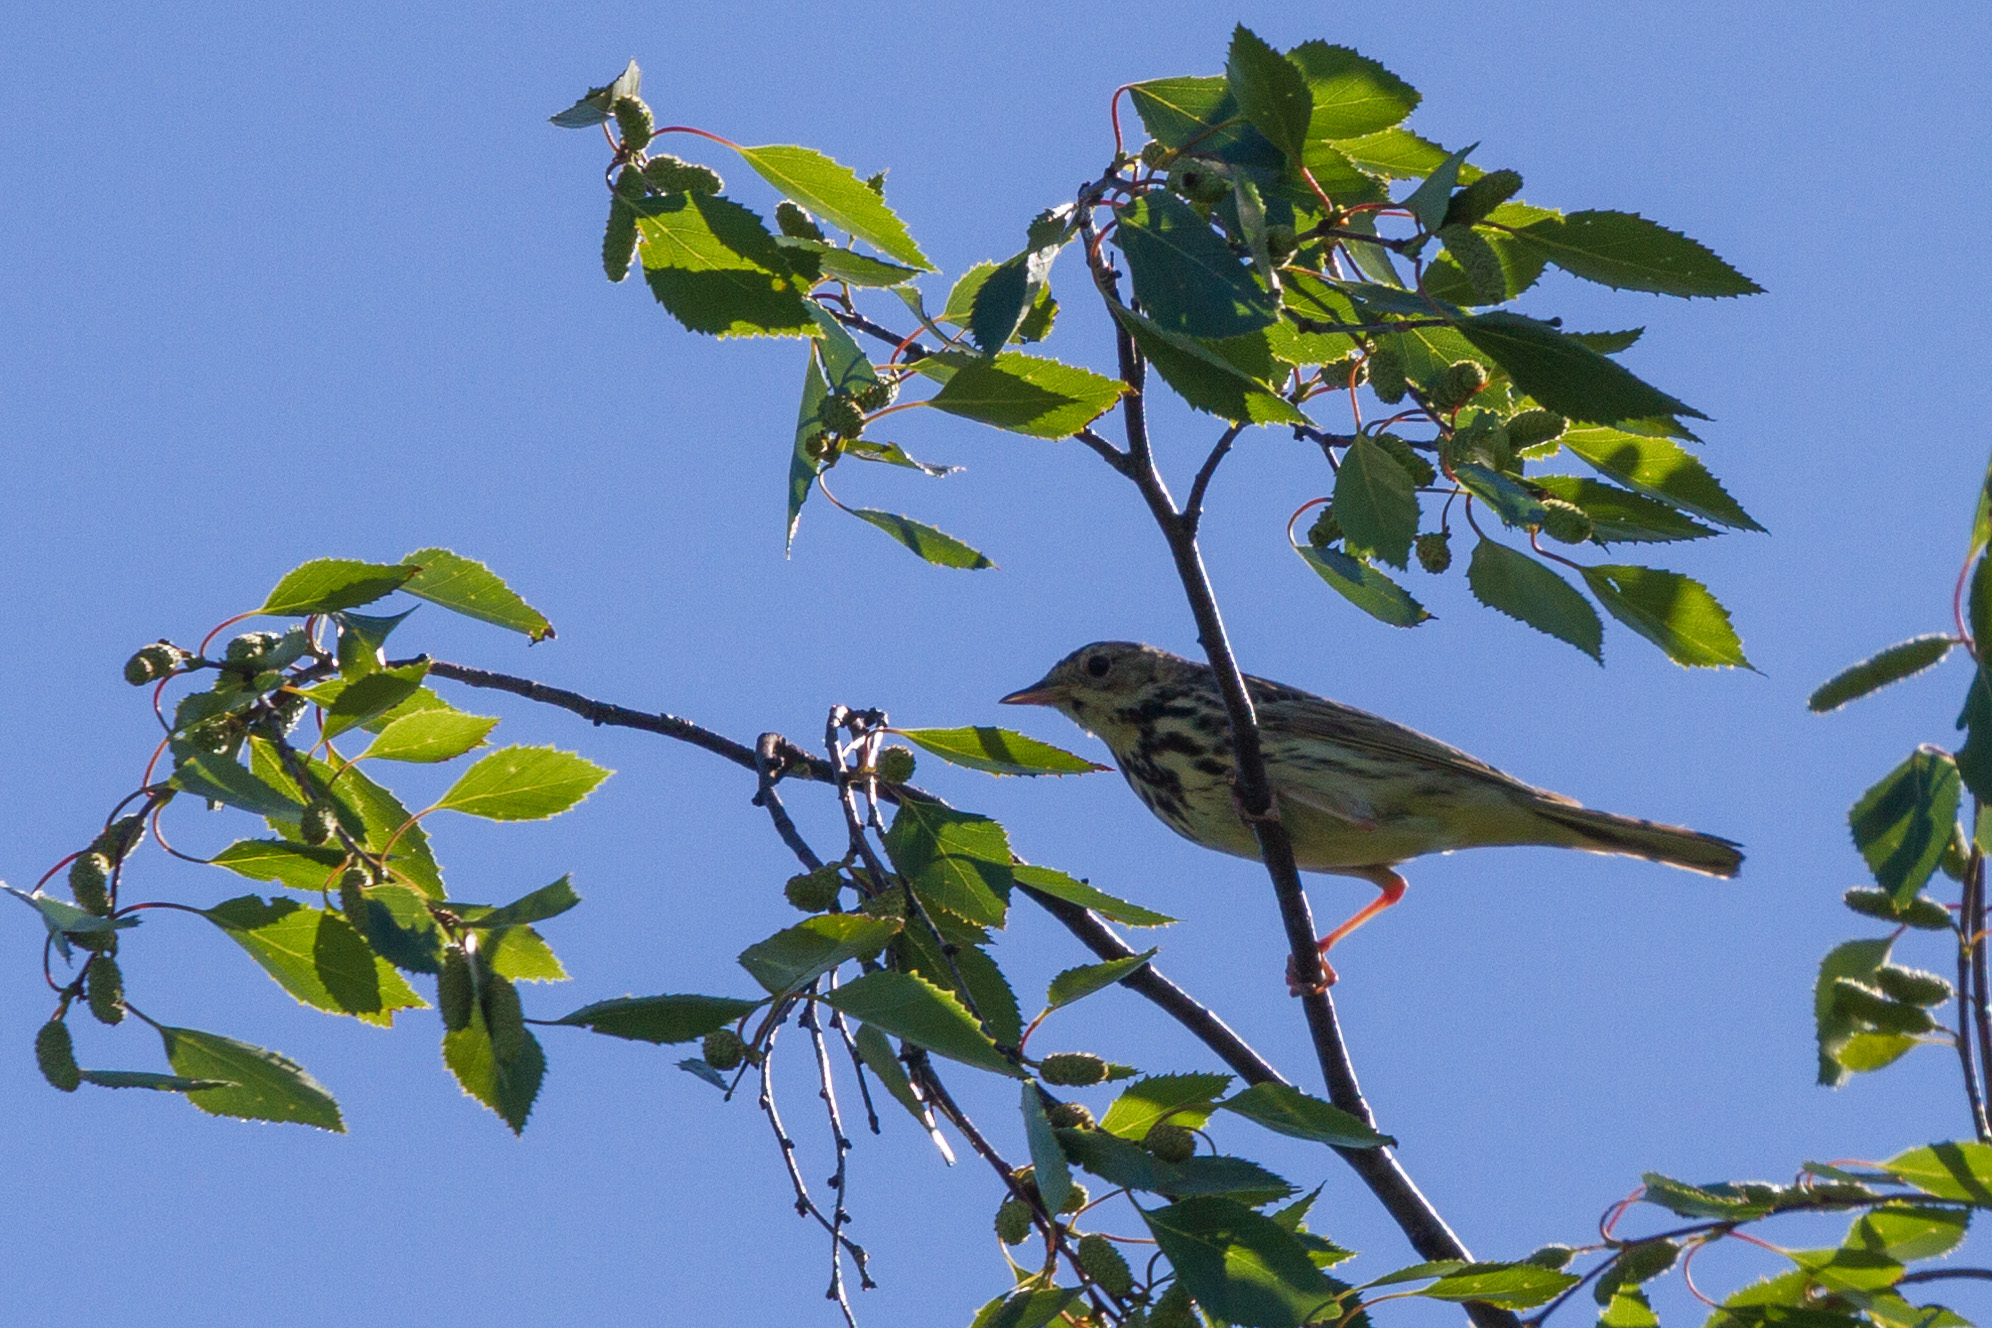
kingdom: Animalia
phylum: Chordata
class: Aves
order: Passeriformes
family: Motacillidae
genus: Anthus
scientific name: Anthus trivialis
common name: Tree pipit
